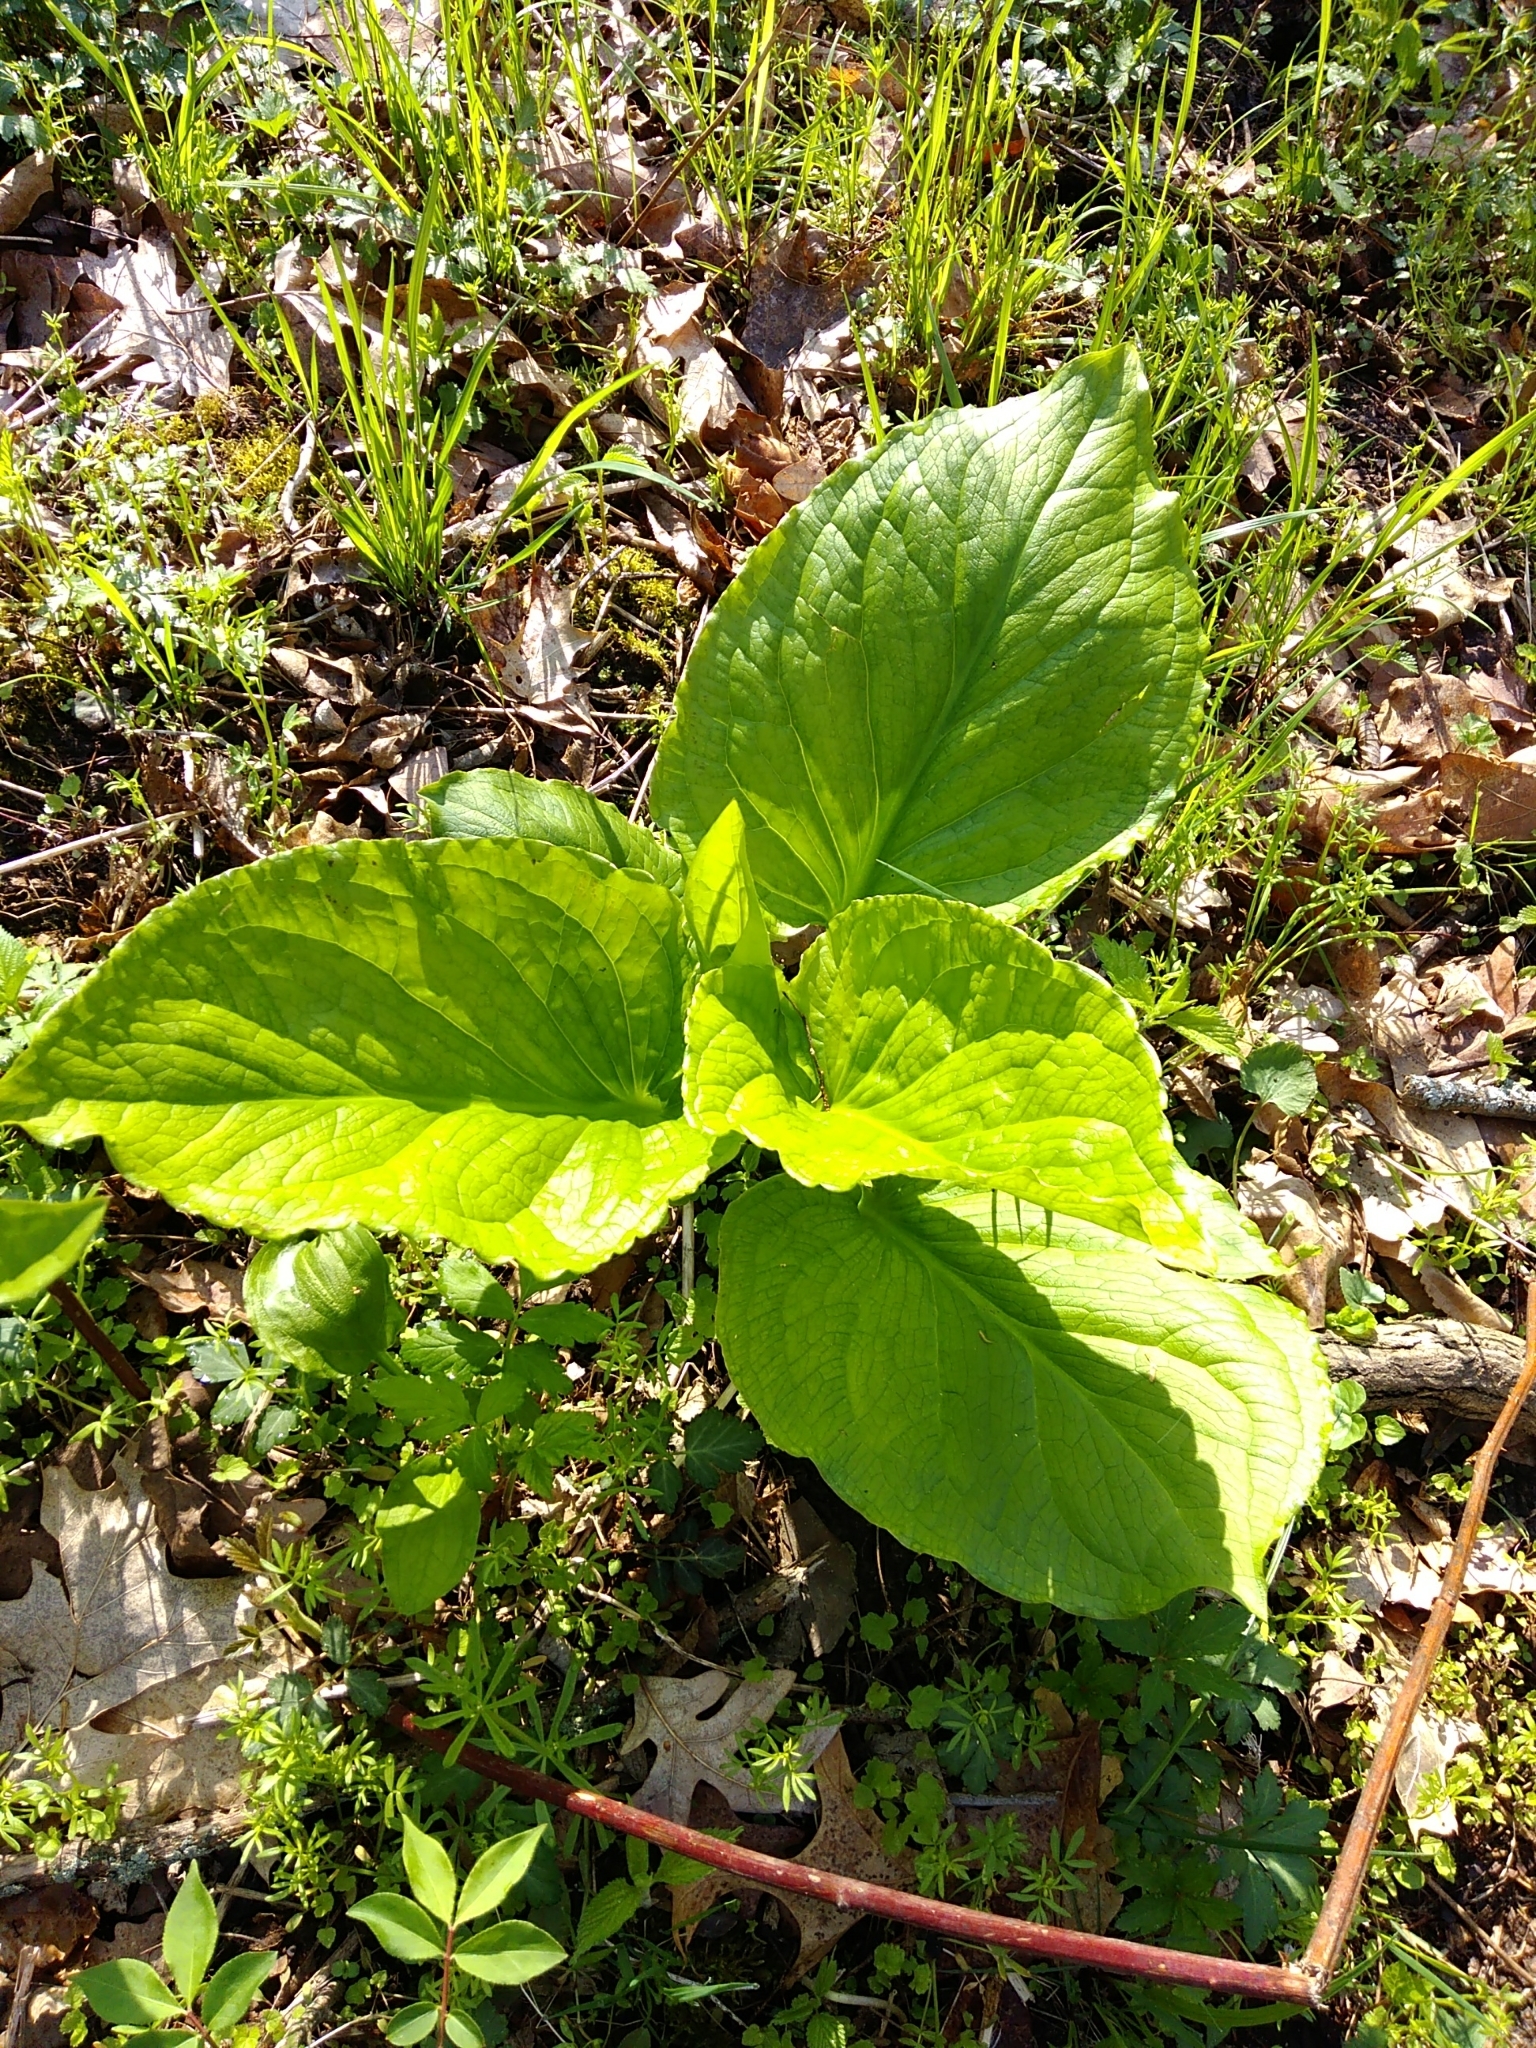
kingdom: Plantae
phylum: Tracheophyta
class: Liliopsida
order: Alismatales
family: Araceae
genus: Symplocarpus
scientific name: Symplocarpus foetidus
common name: Eastern skunk cabbage
